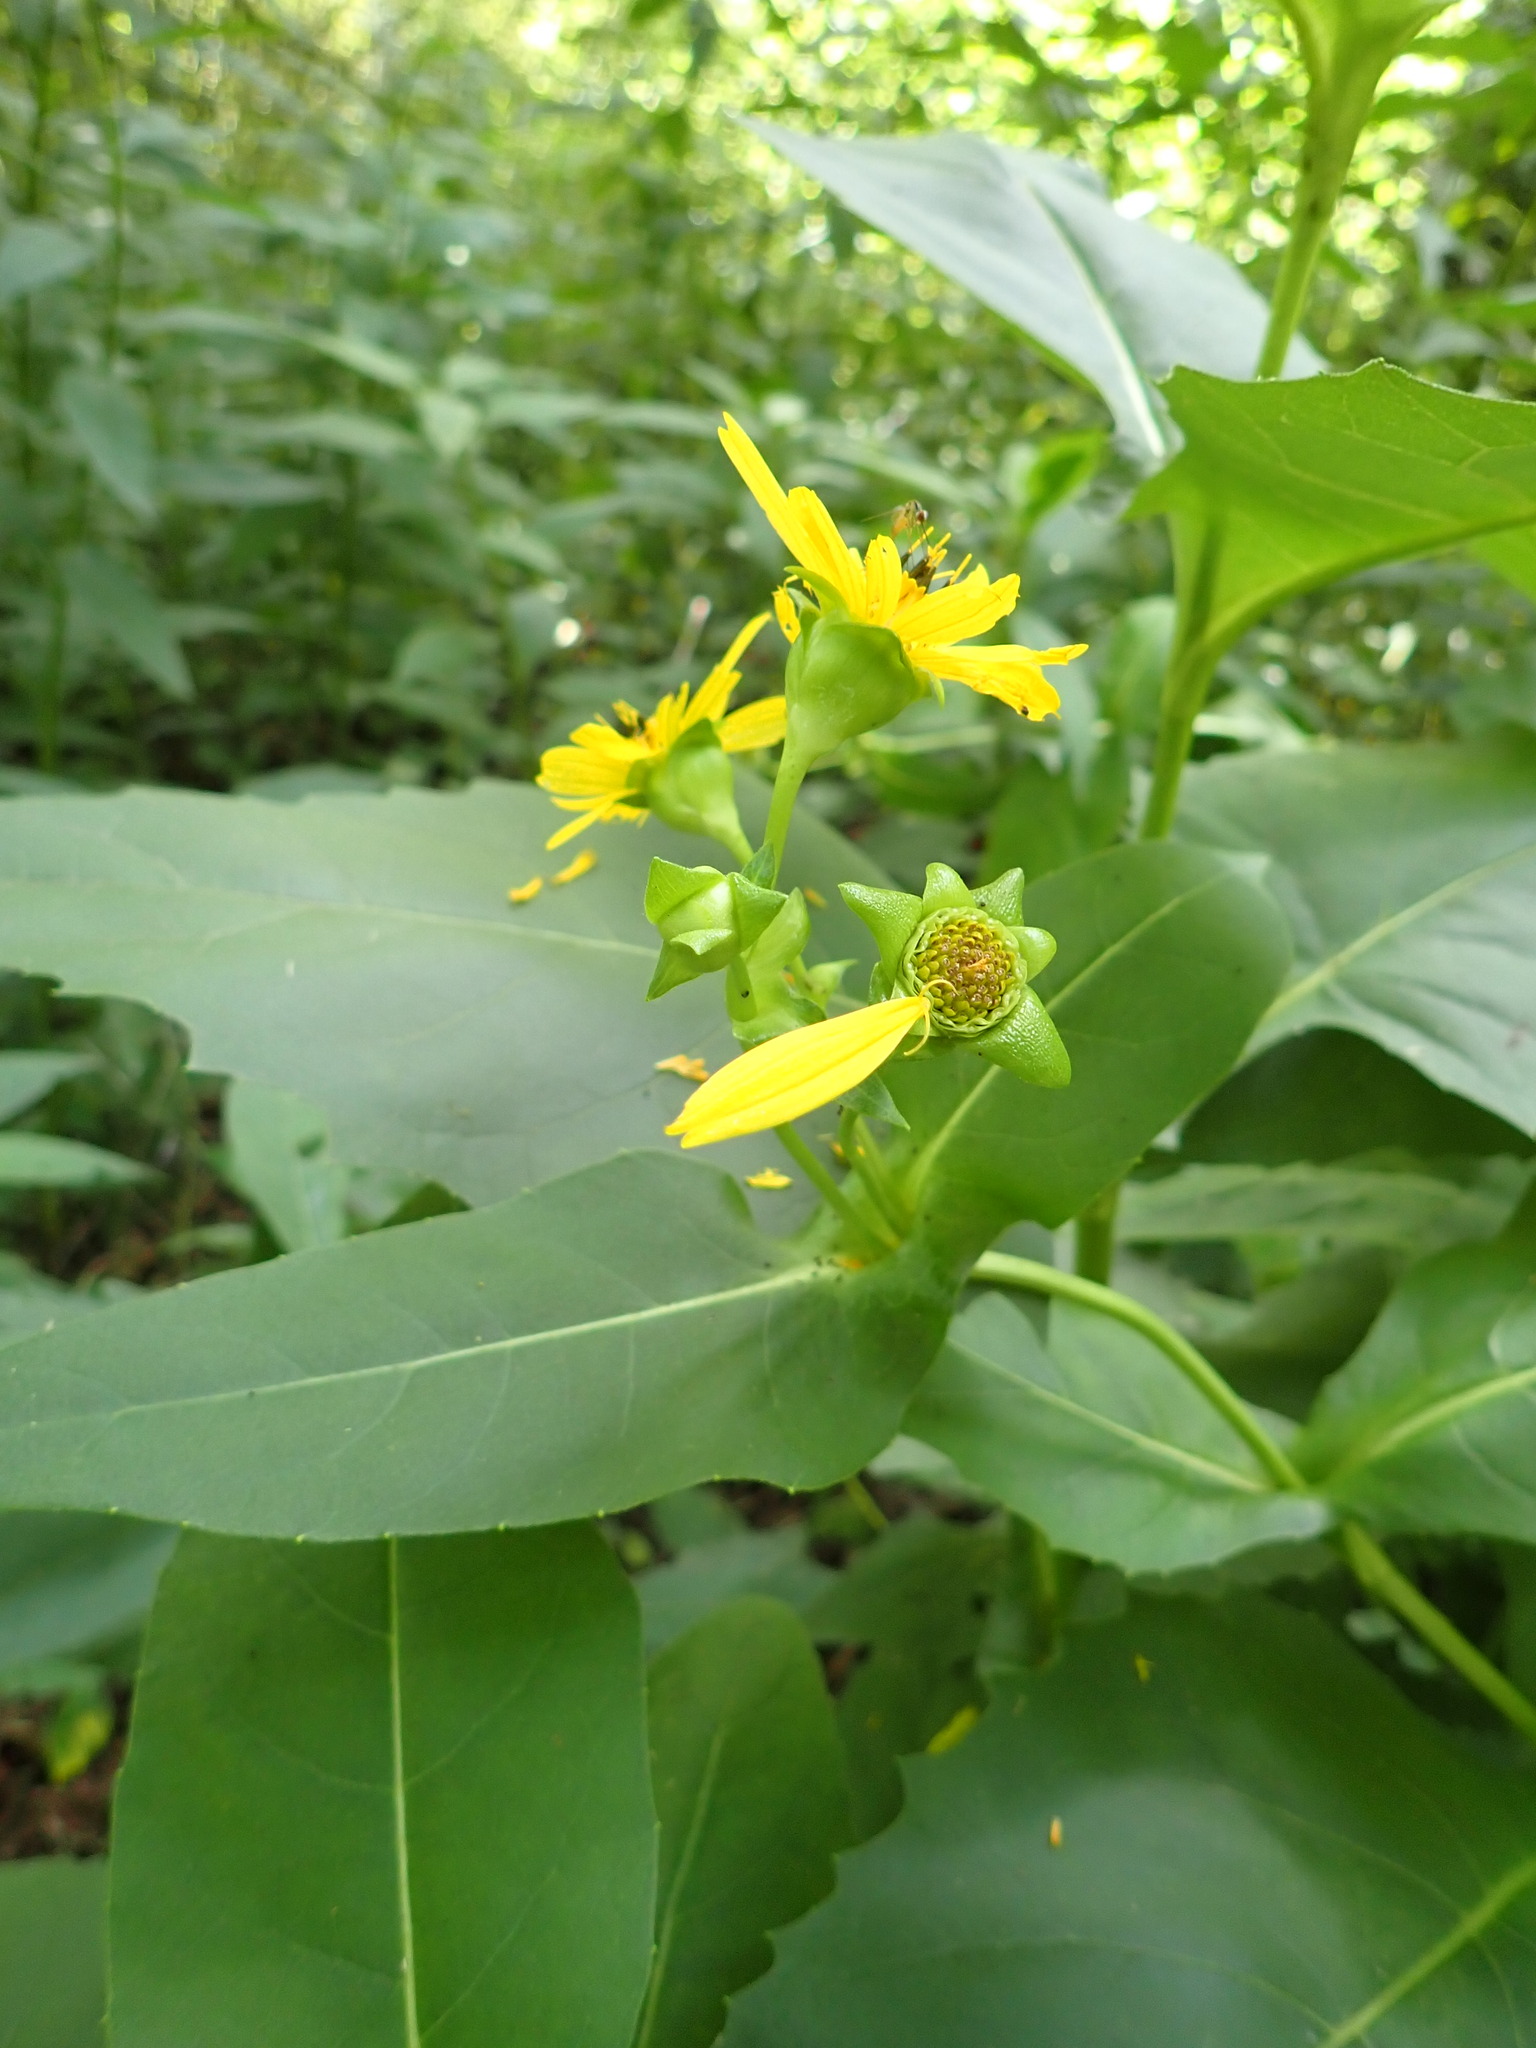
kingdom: Plantae
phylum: Tracheophyta
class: Magnoliopsida
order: Asterales
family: Asteraceae
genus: Silphium
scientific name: Silphium perfoliatum
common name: Cup-plant
